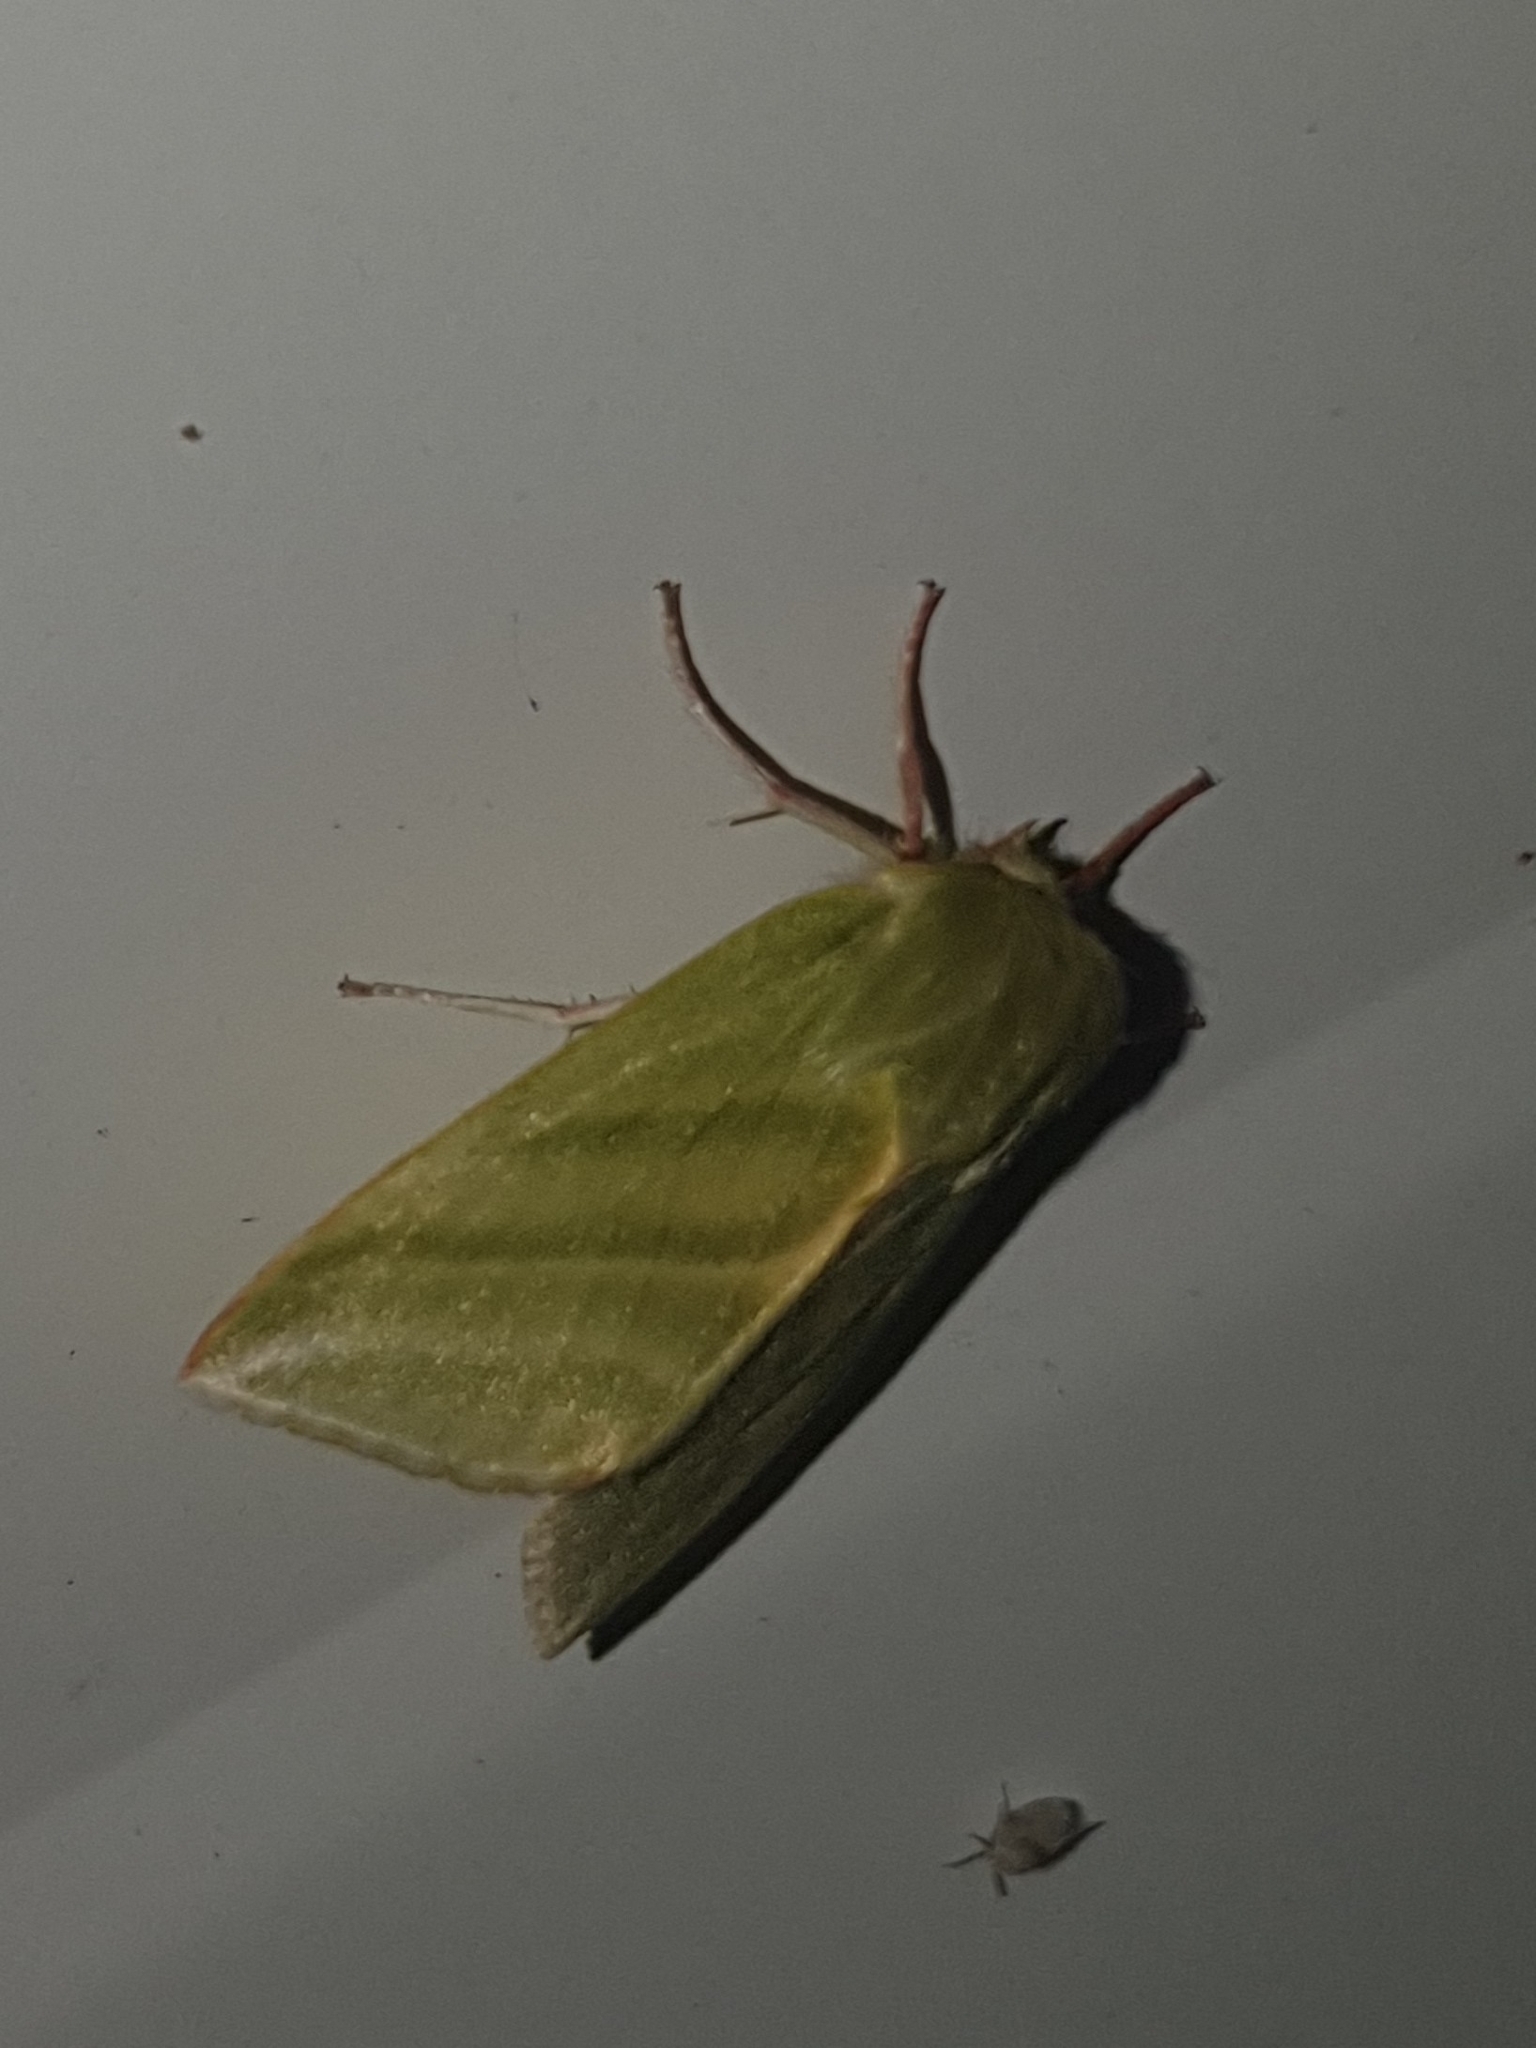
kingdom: Animalia
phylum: Arthropoda
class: Insecta
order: Lepidoptera
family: Nolidae
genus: Pseudoips
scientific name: Pseudoips prasinana
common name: Green silver-lines
